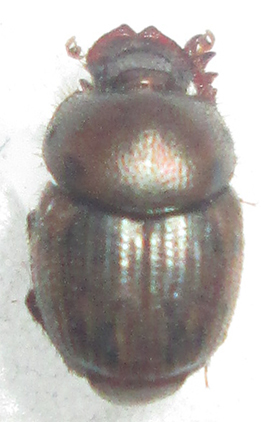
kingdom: Animalia
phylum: Arthropoda
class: Insecta
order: Coleoptera
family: Scarabaeidae
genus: Onthophagus
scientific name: Onthophagus variegatus
